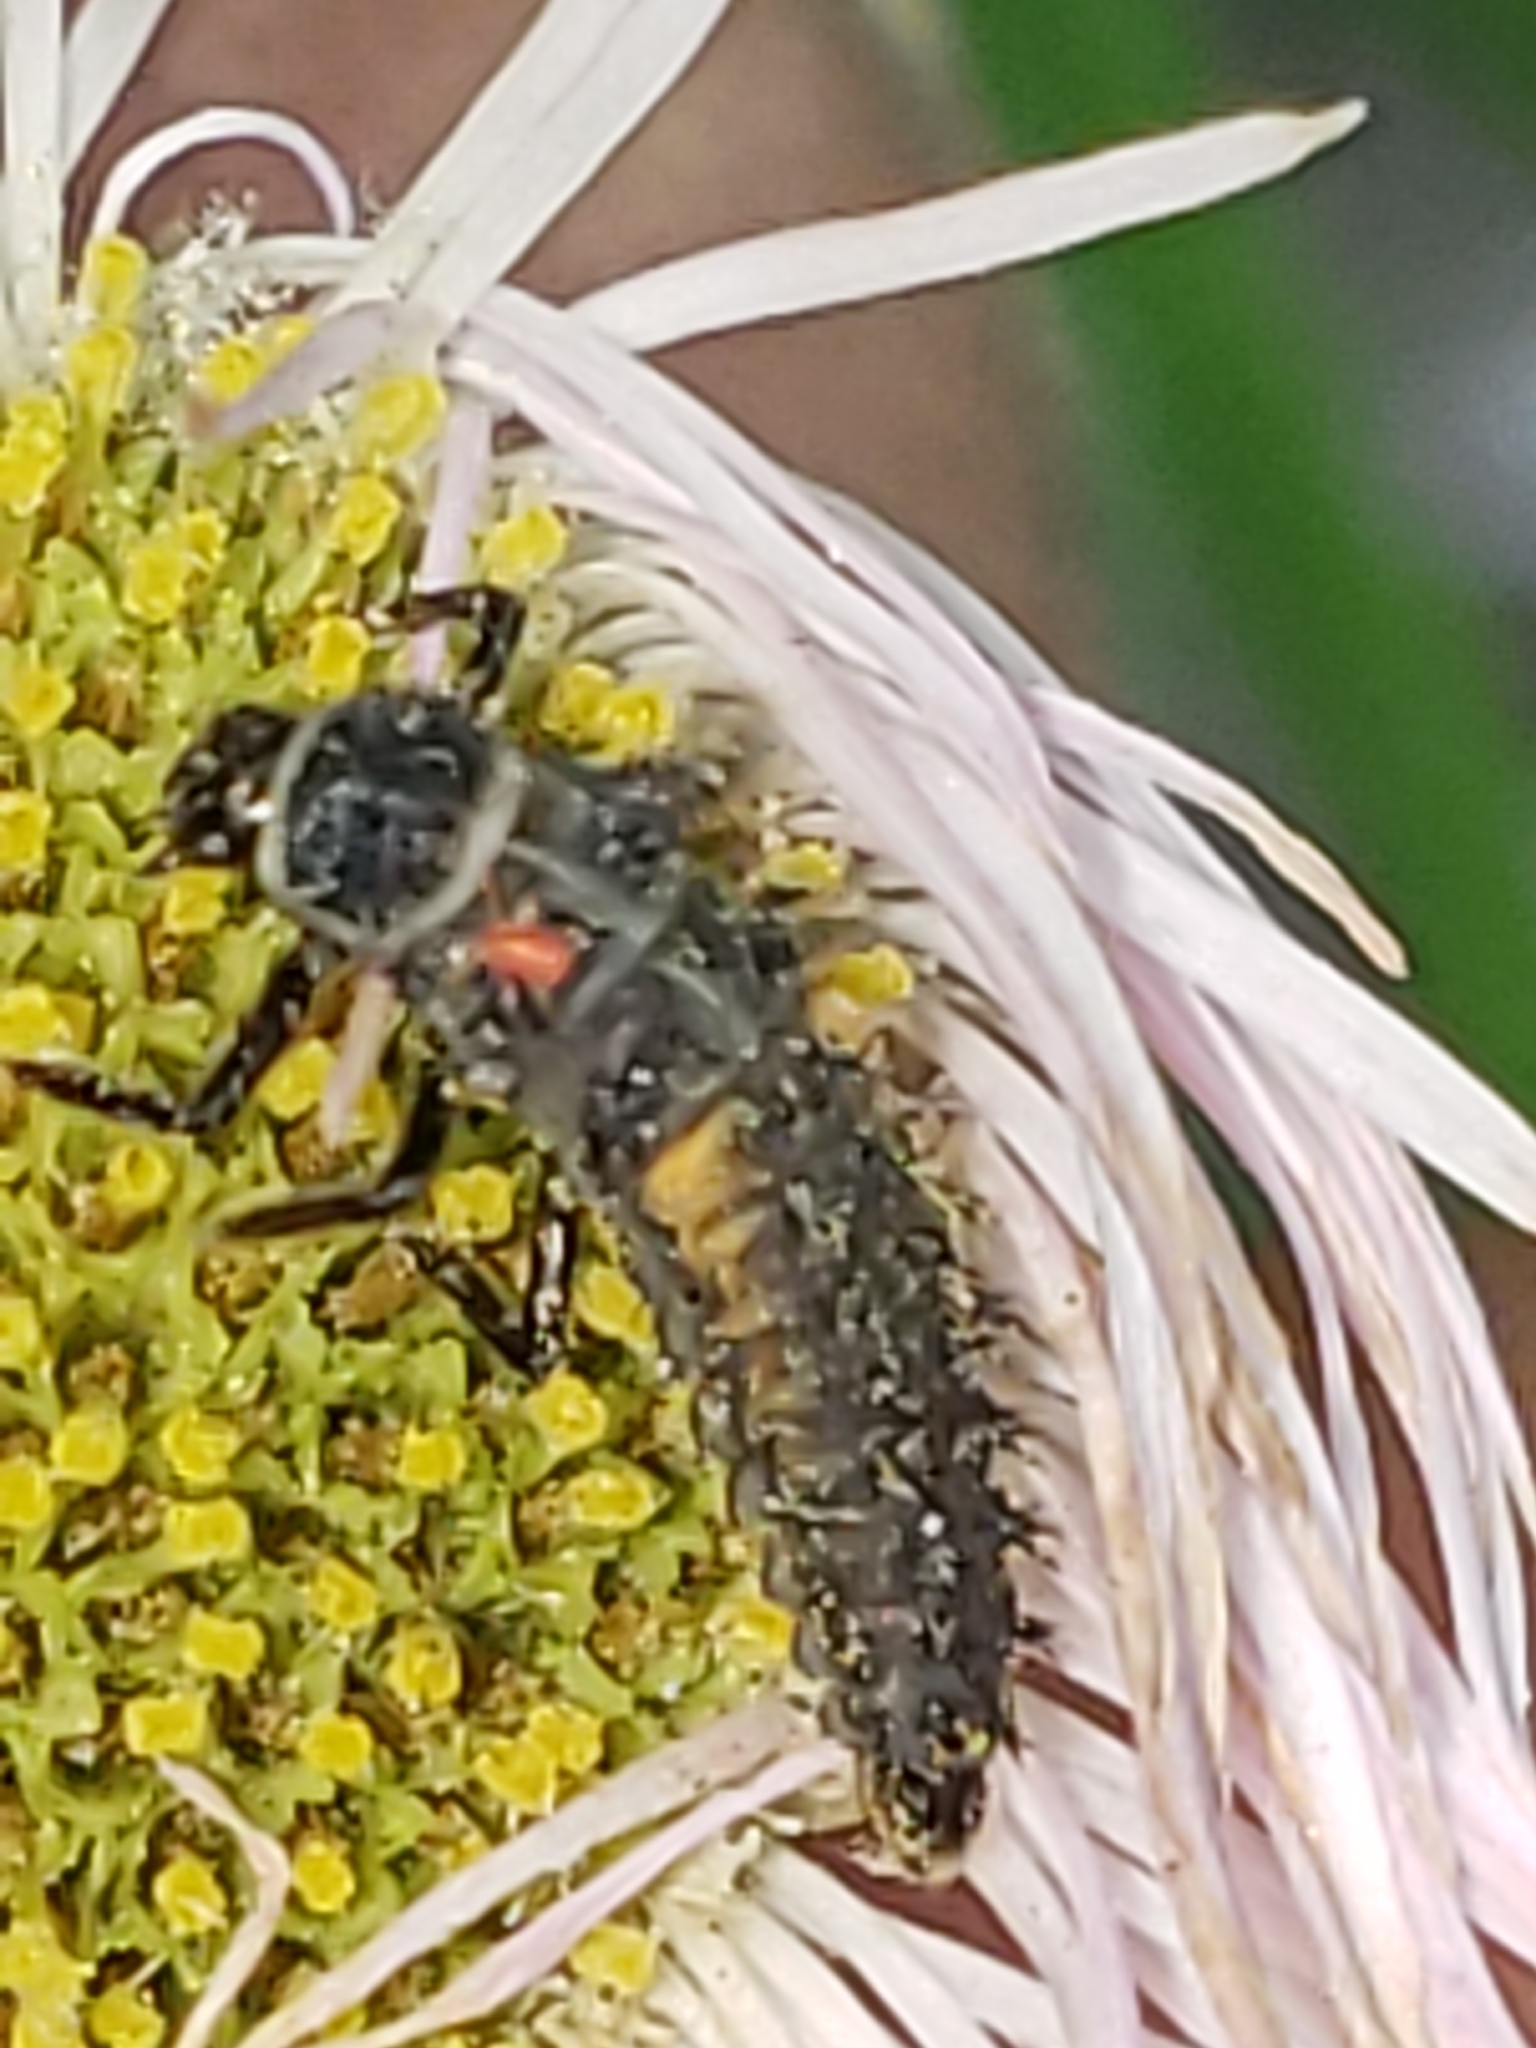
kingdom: Animalia
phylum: Arthropoda
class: Insecta
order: Coleoptera
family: Coccinellidae
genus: Harmonia
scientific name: Harmonia axyridis
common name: Harlequin ladybird
